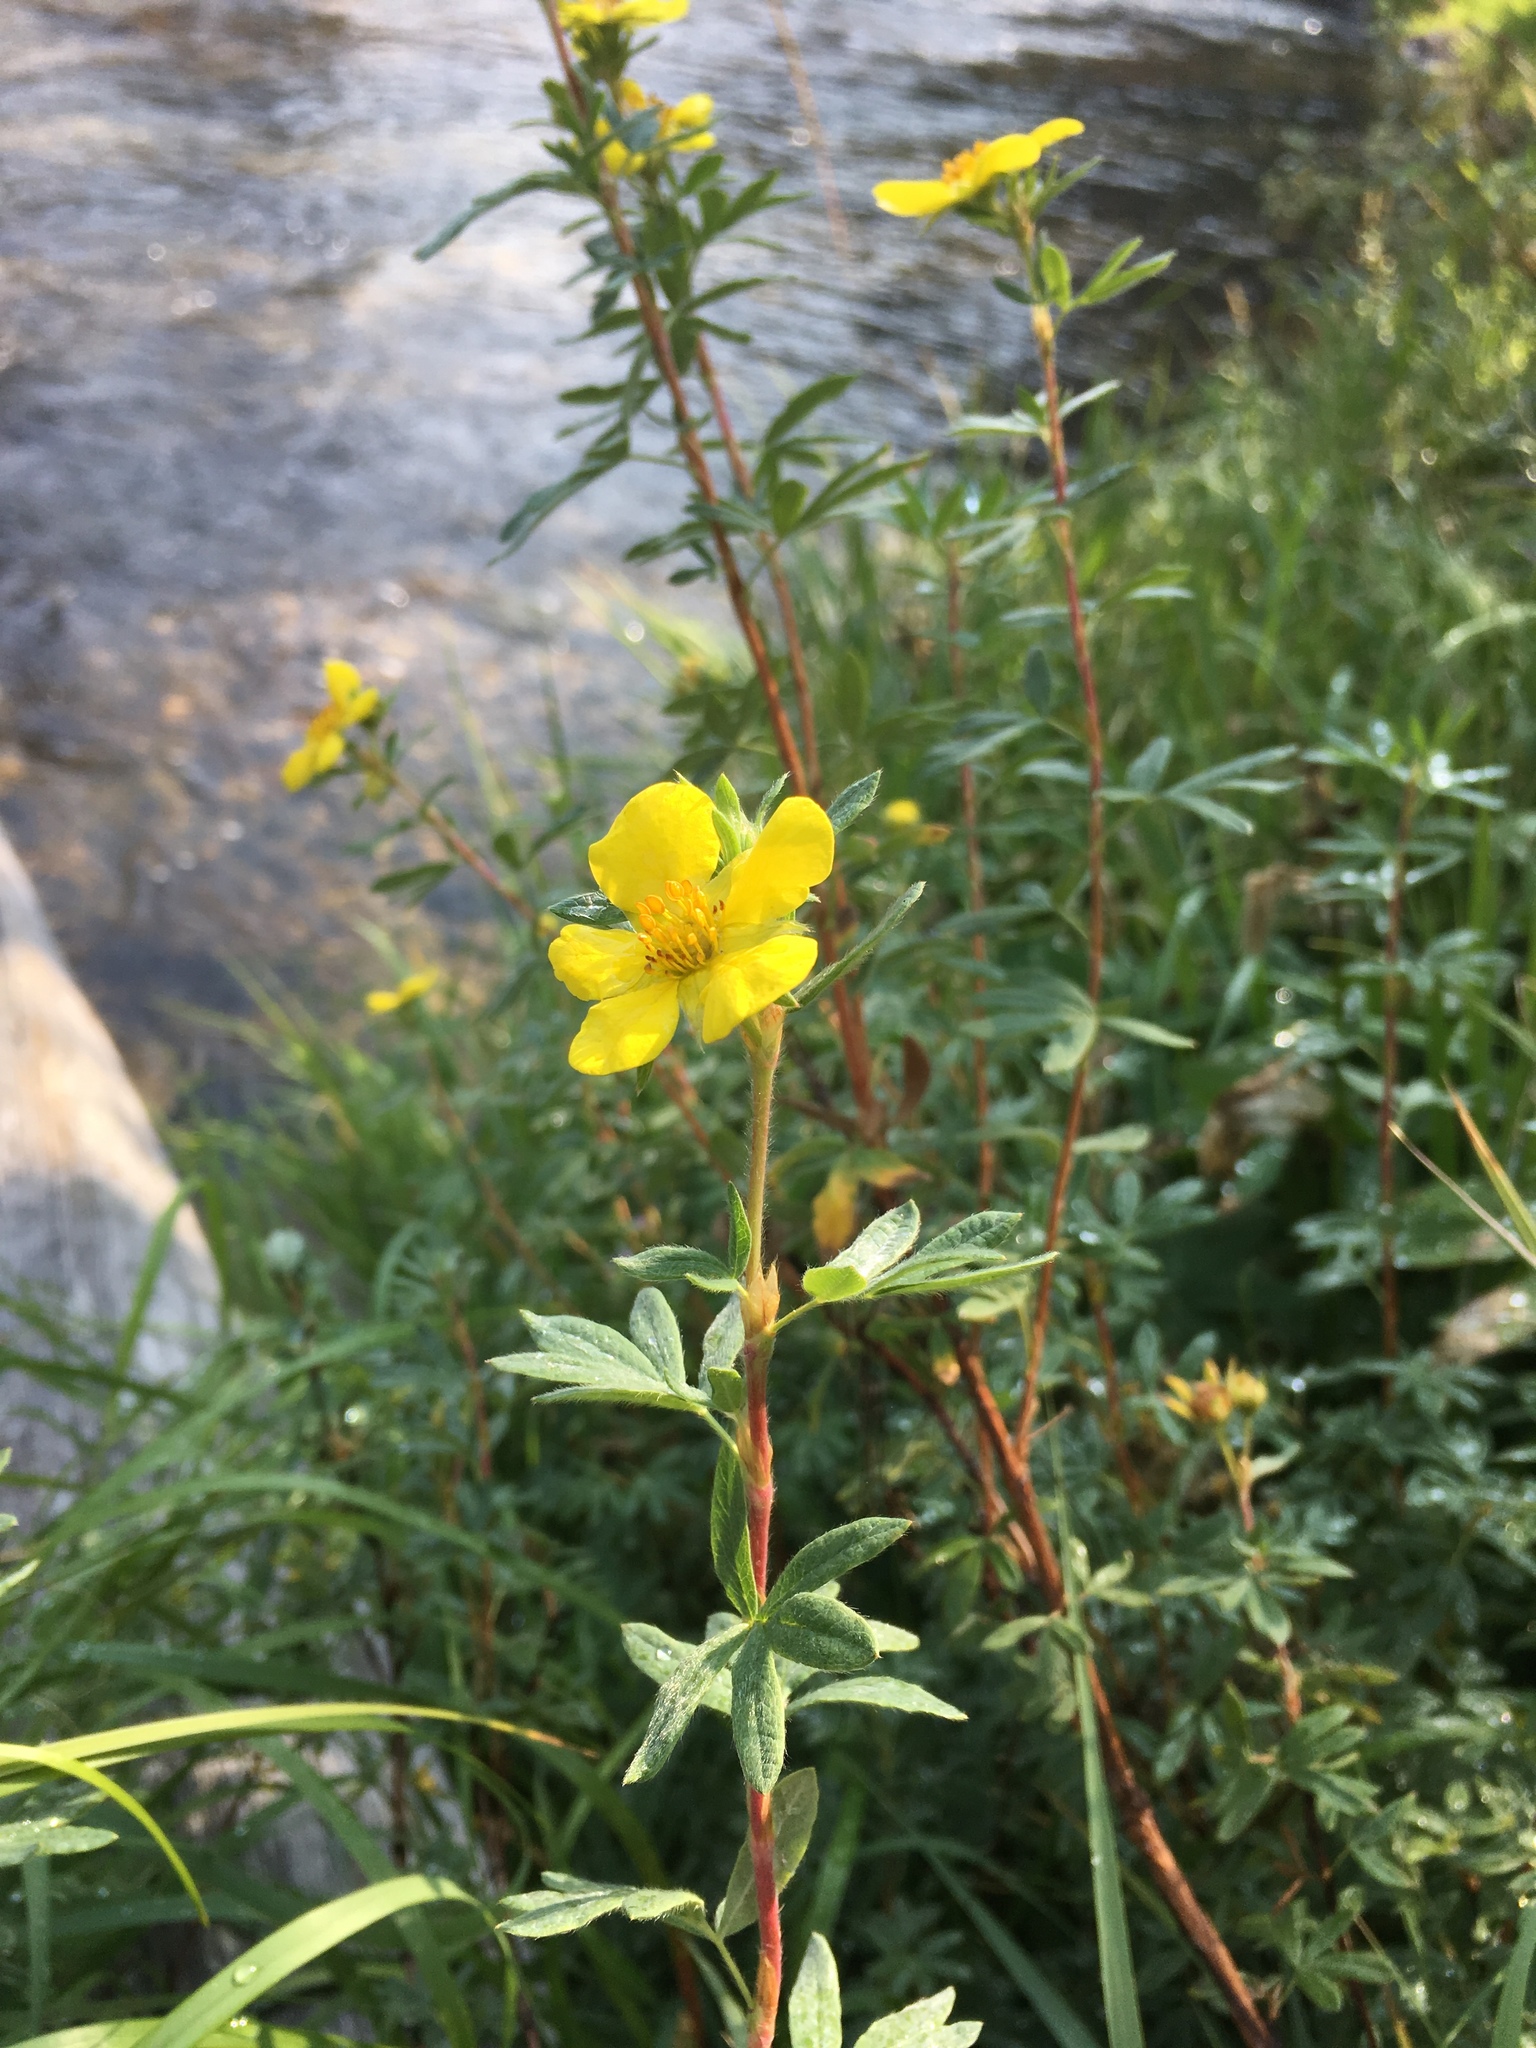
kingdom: Plantae
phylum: Tracheophyta
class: Magnoliopsida
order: Rosales
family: Rosaceae
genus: Dasiphora
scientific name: Dasiphora fruticosa
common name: Shrubby cinquefoil
